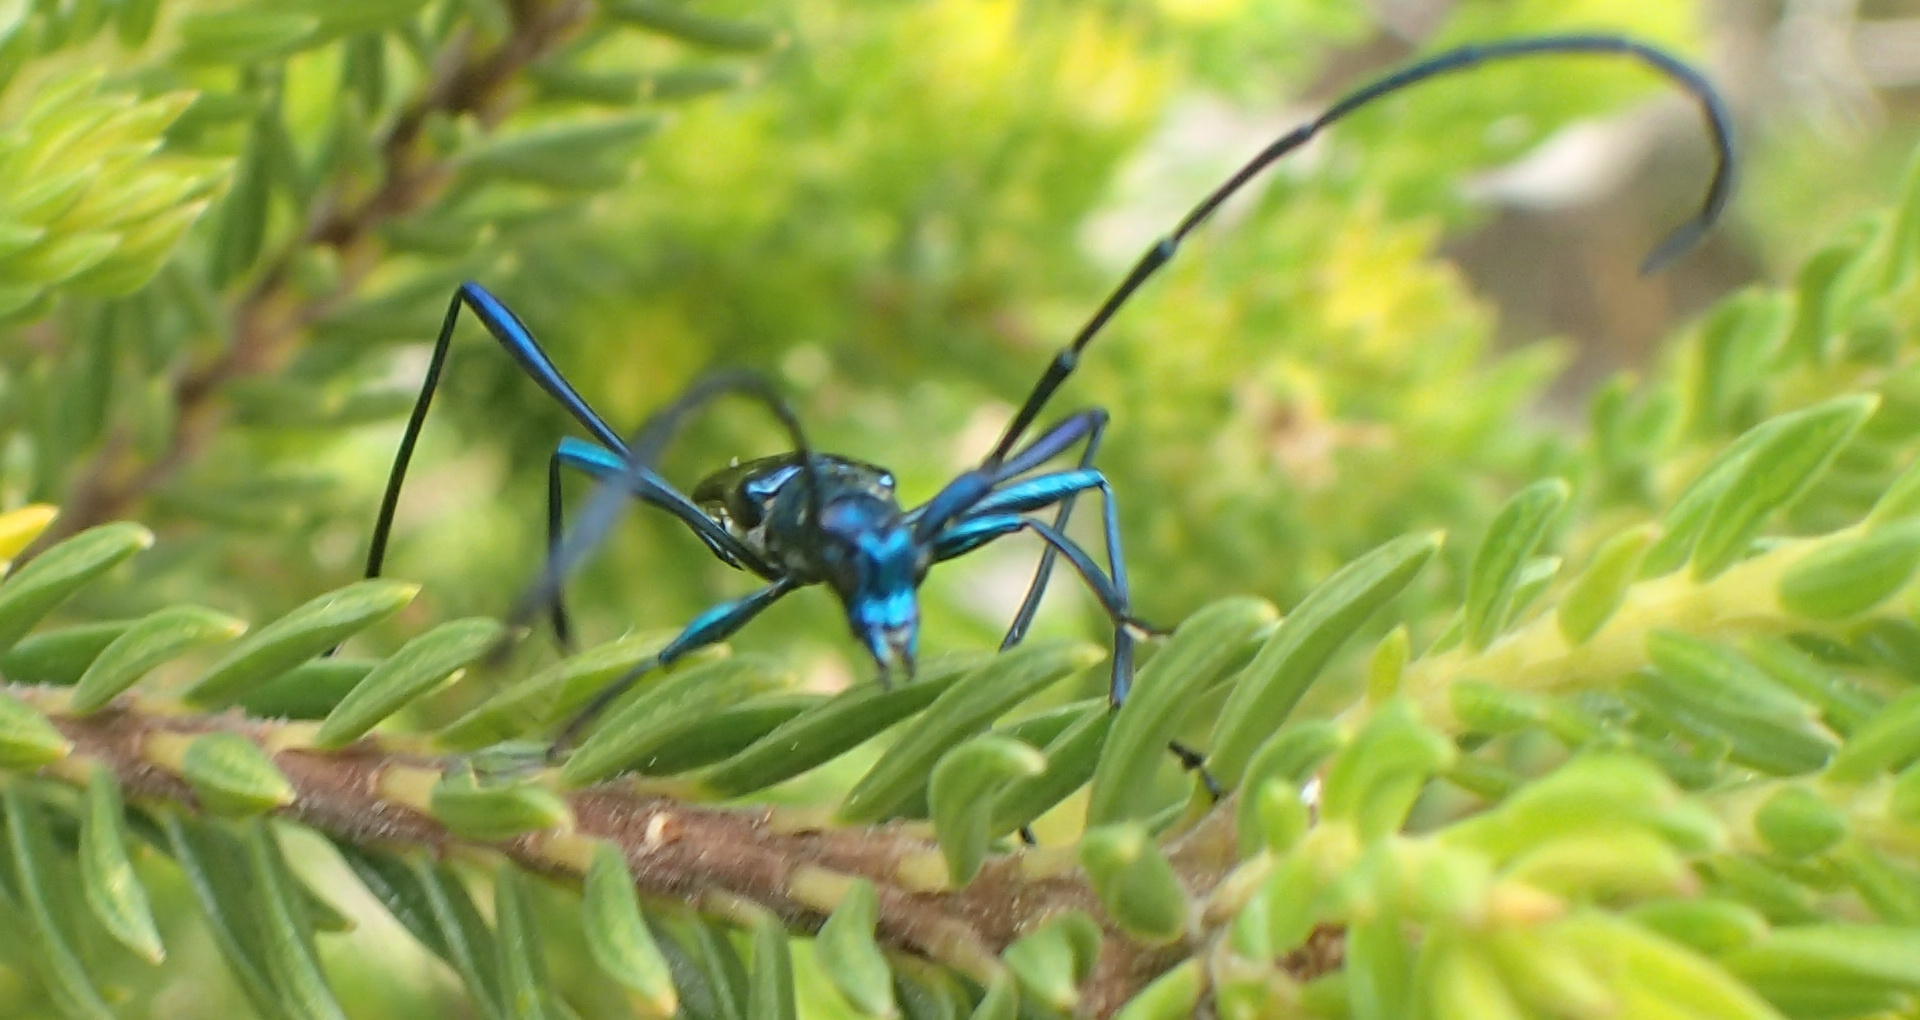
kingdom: Animalia
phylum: Arthropoda
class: Insecta
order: Coleoptera
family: Cerambycidae
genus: Promeces
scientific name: Promeces longipes
